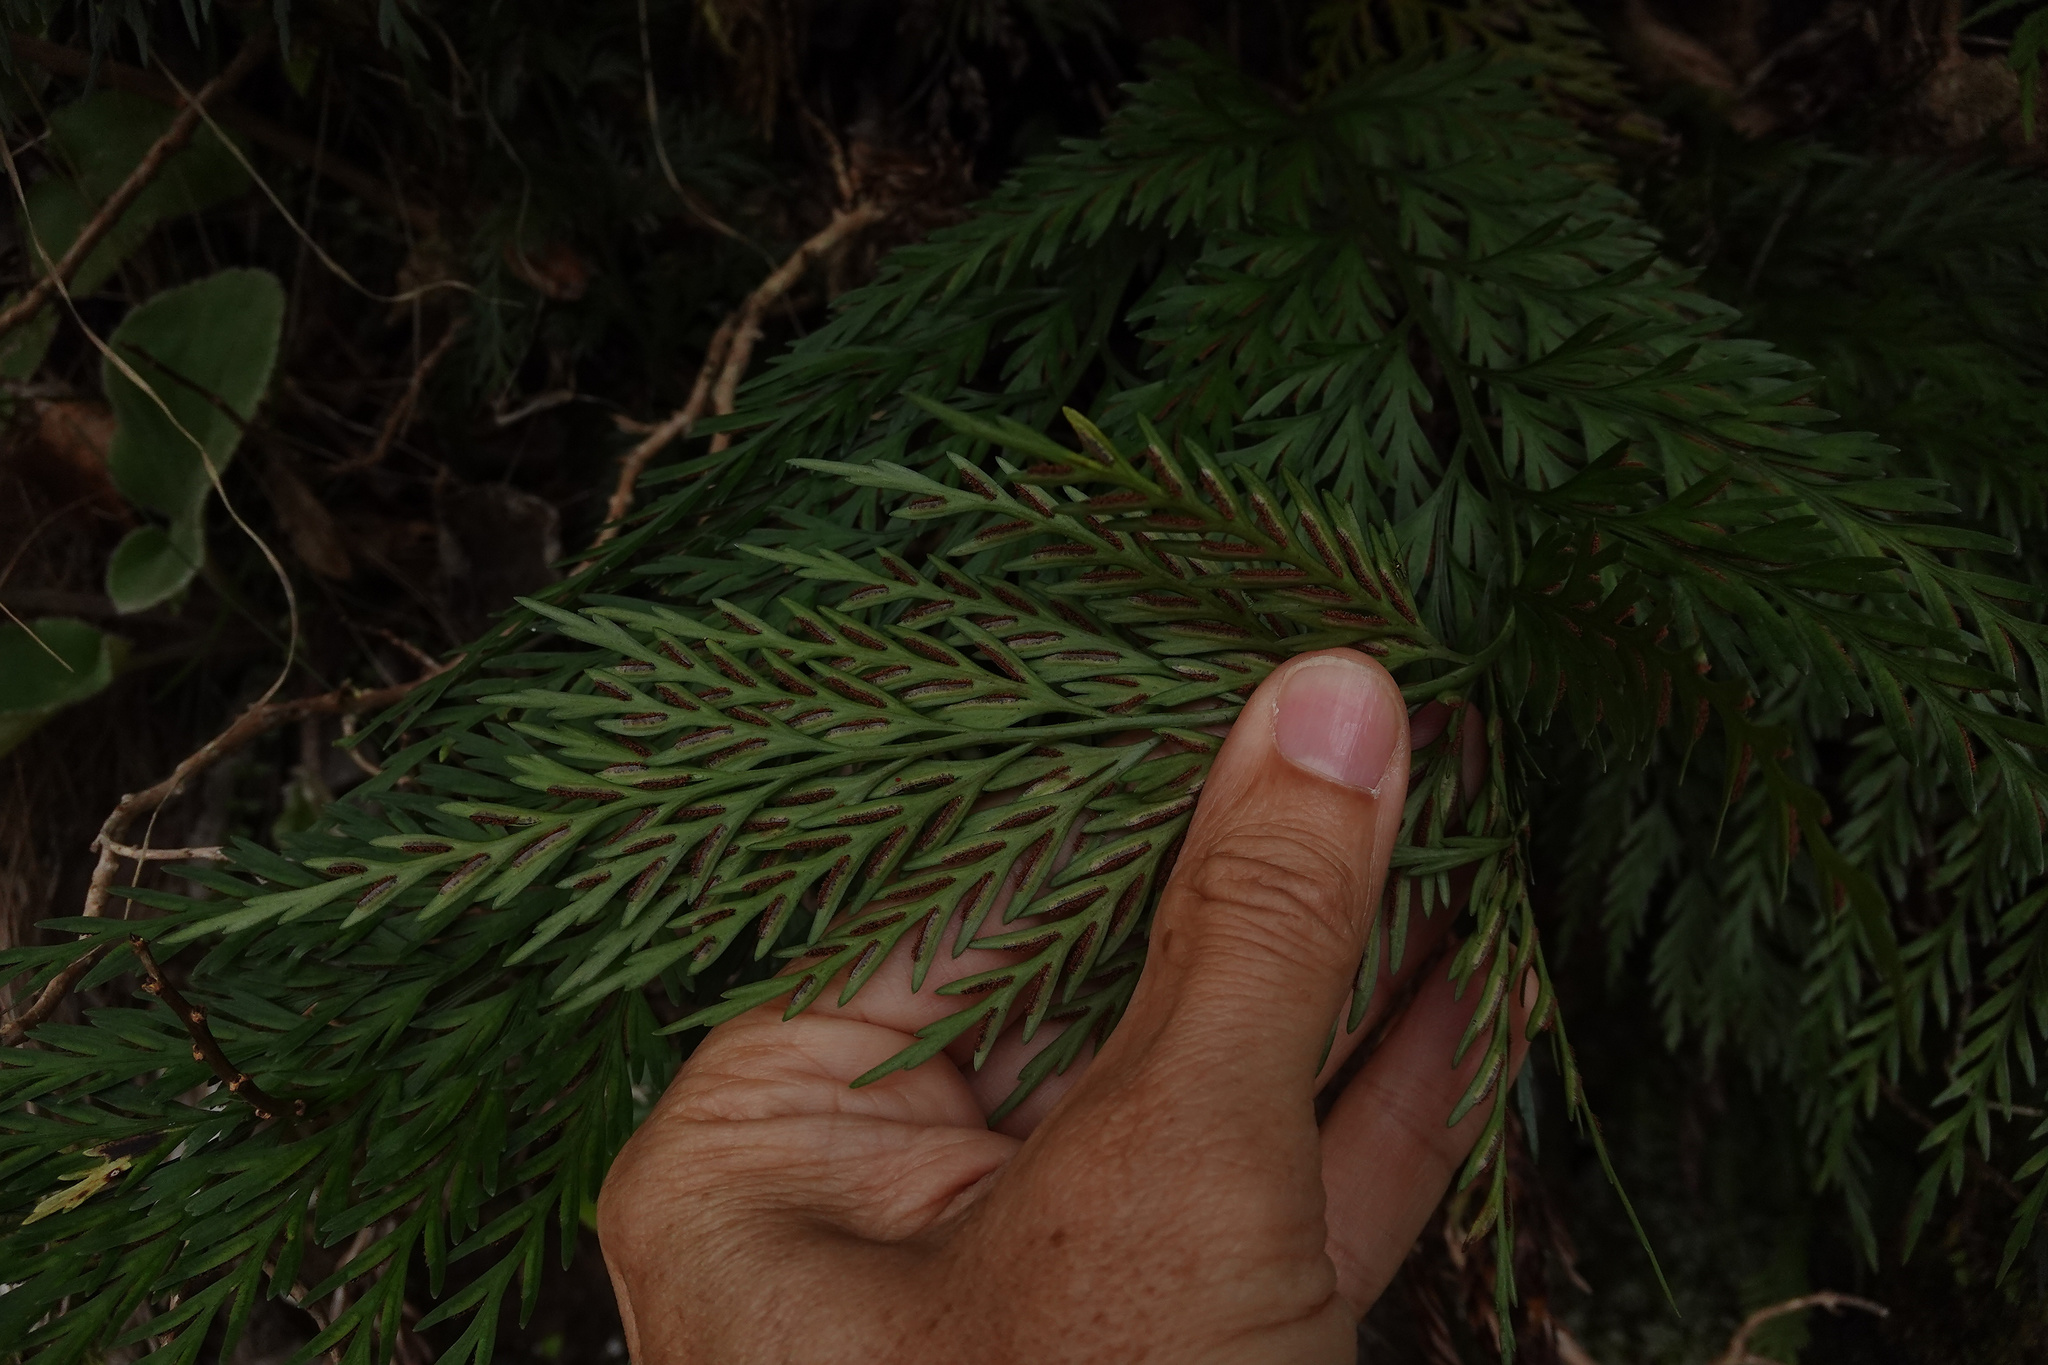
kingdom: Plantae
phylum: Tracheophyta
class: Polypodiopsida
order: Polypodiales
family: Aspleniaceae
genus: Asplenium
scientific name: Asplenium appendiculatum
